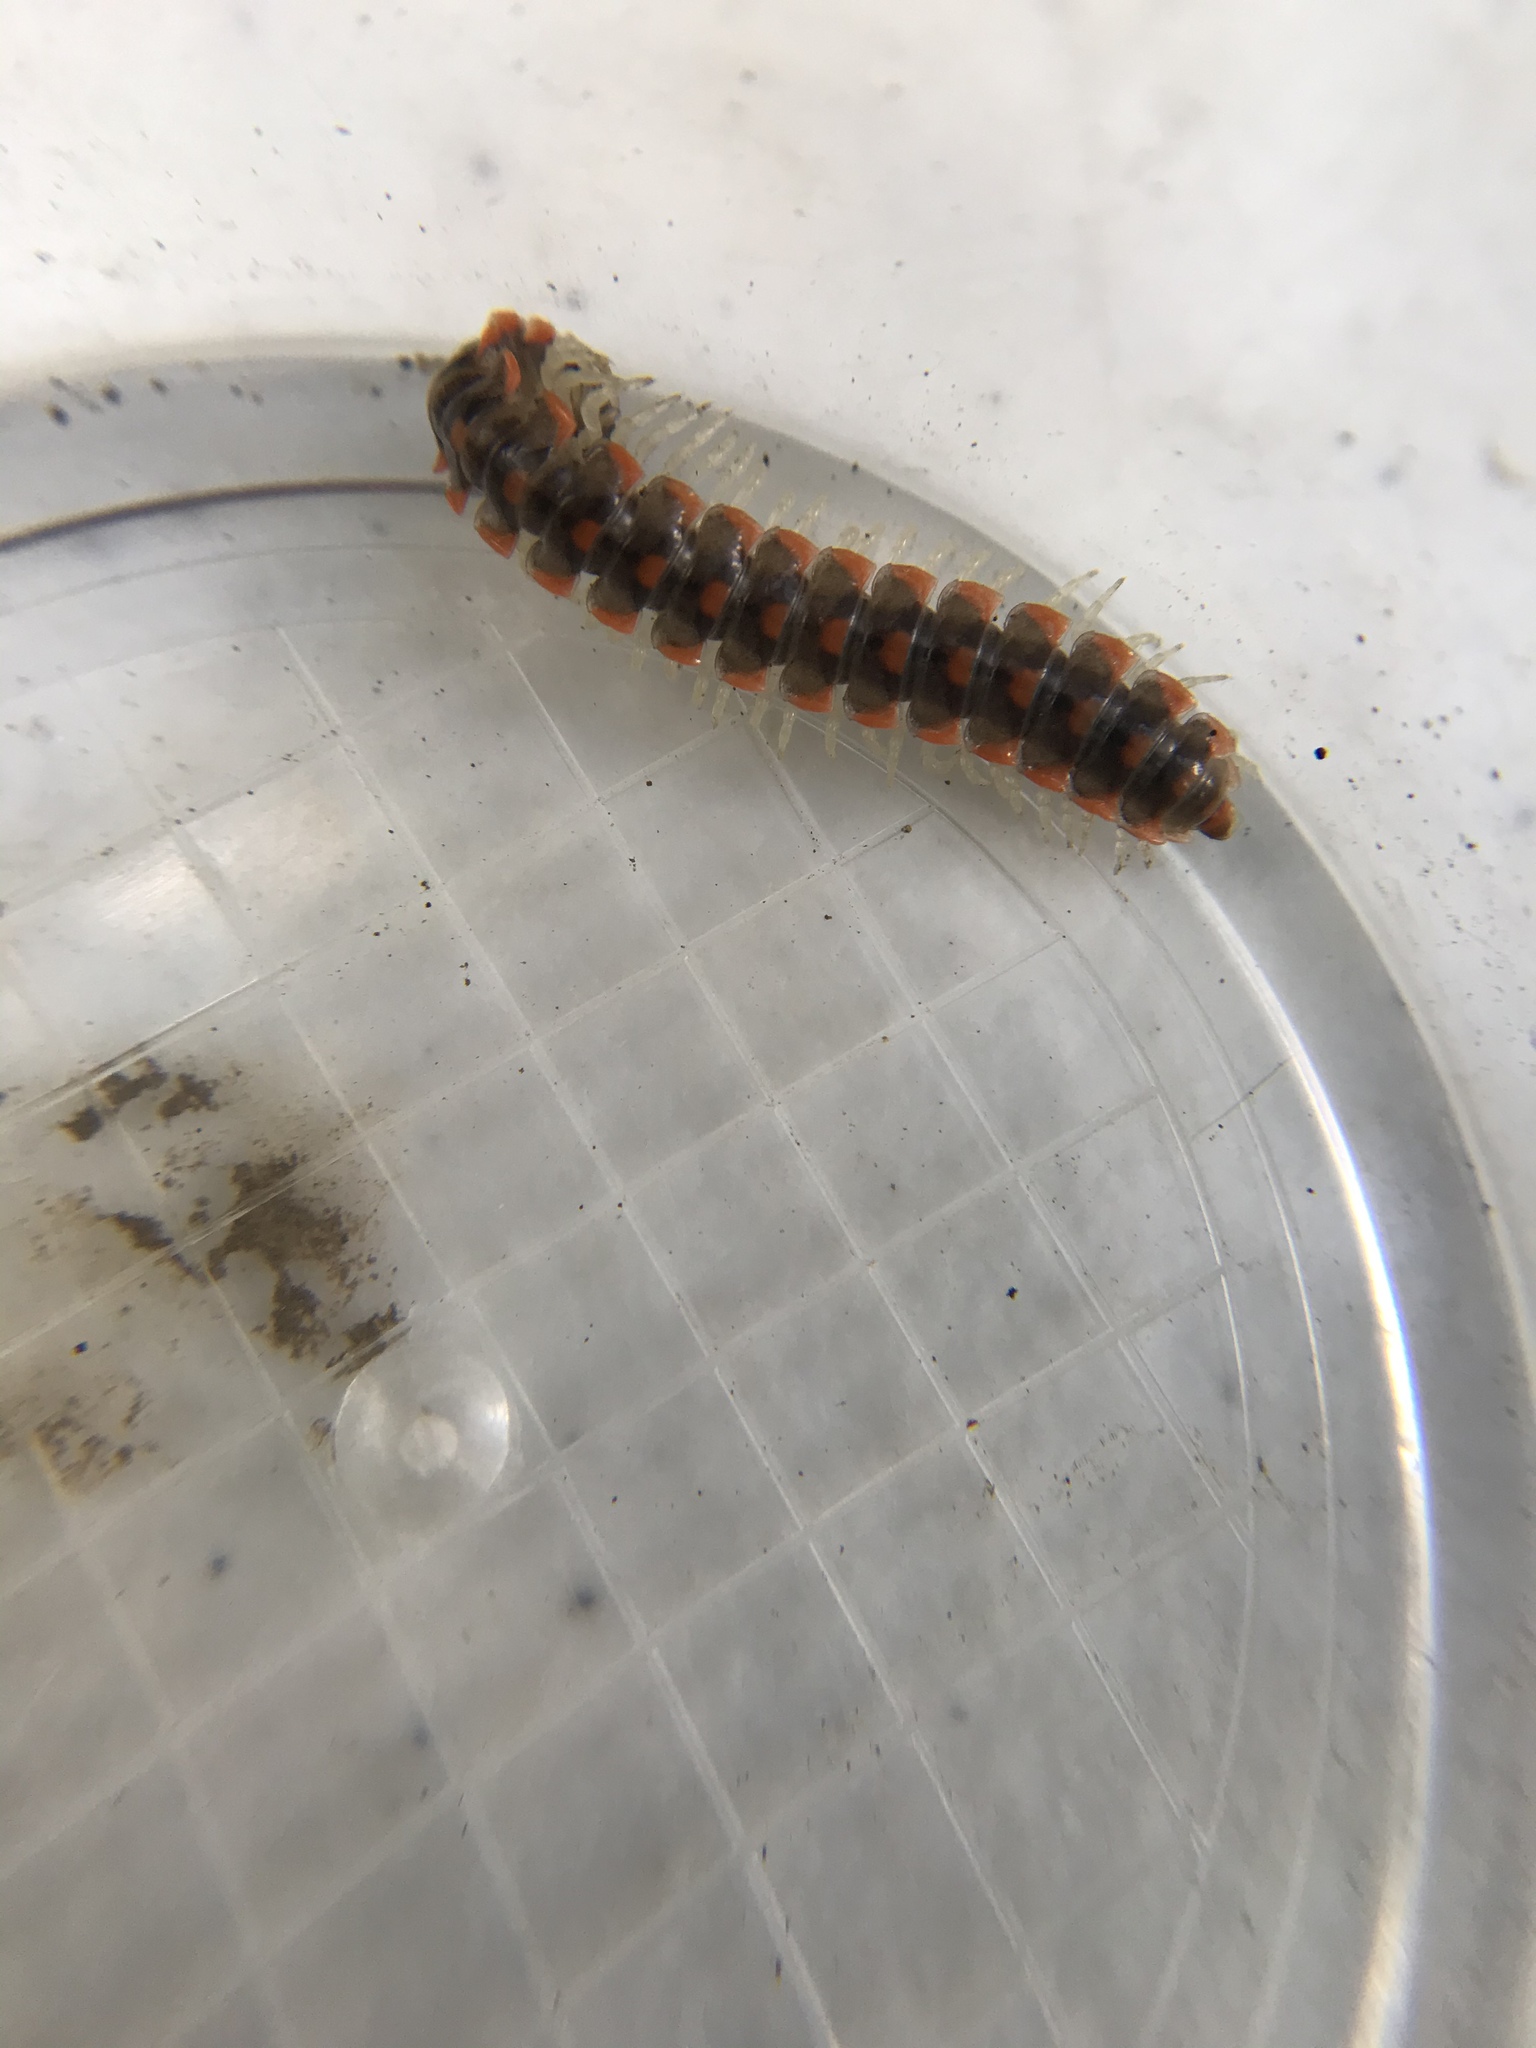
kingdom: Animalia
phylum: Arthropoda
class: Diplopoda
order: Polydesmida
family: Xystodesmidae
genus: Euryurus
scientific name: Euryurus leachii
